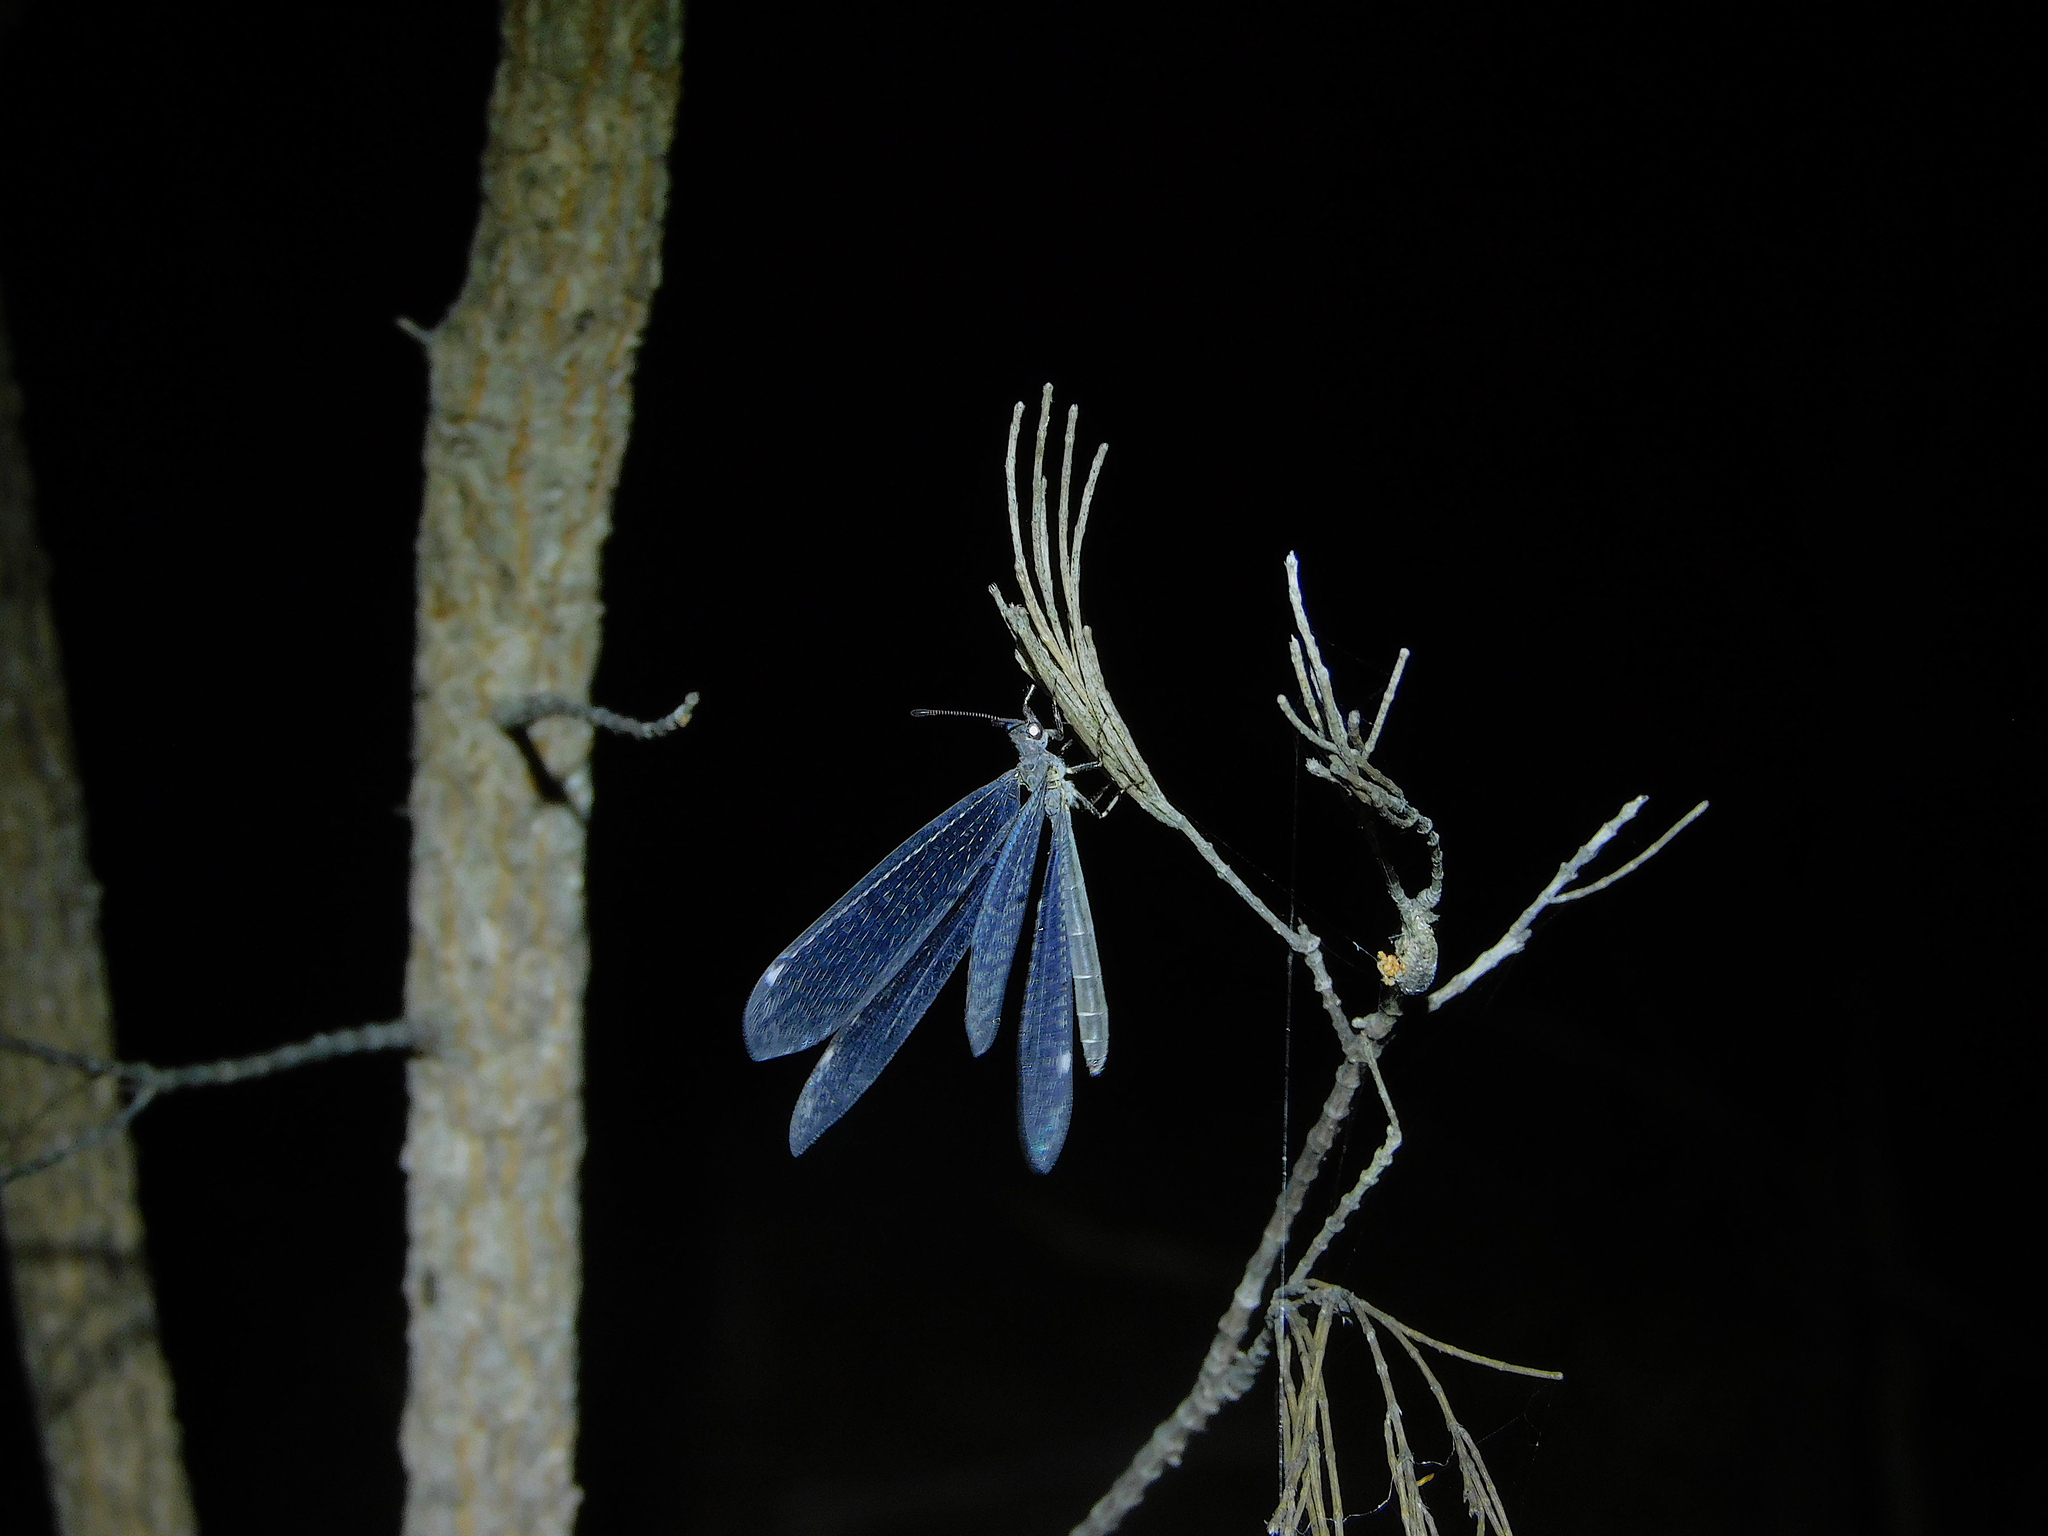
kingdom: Animalia
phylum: Arthropoda
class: Insecta
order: Neuroptera
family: Myrmeleontidae
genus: Bandidus
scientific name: Bandidus vafer
